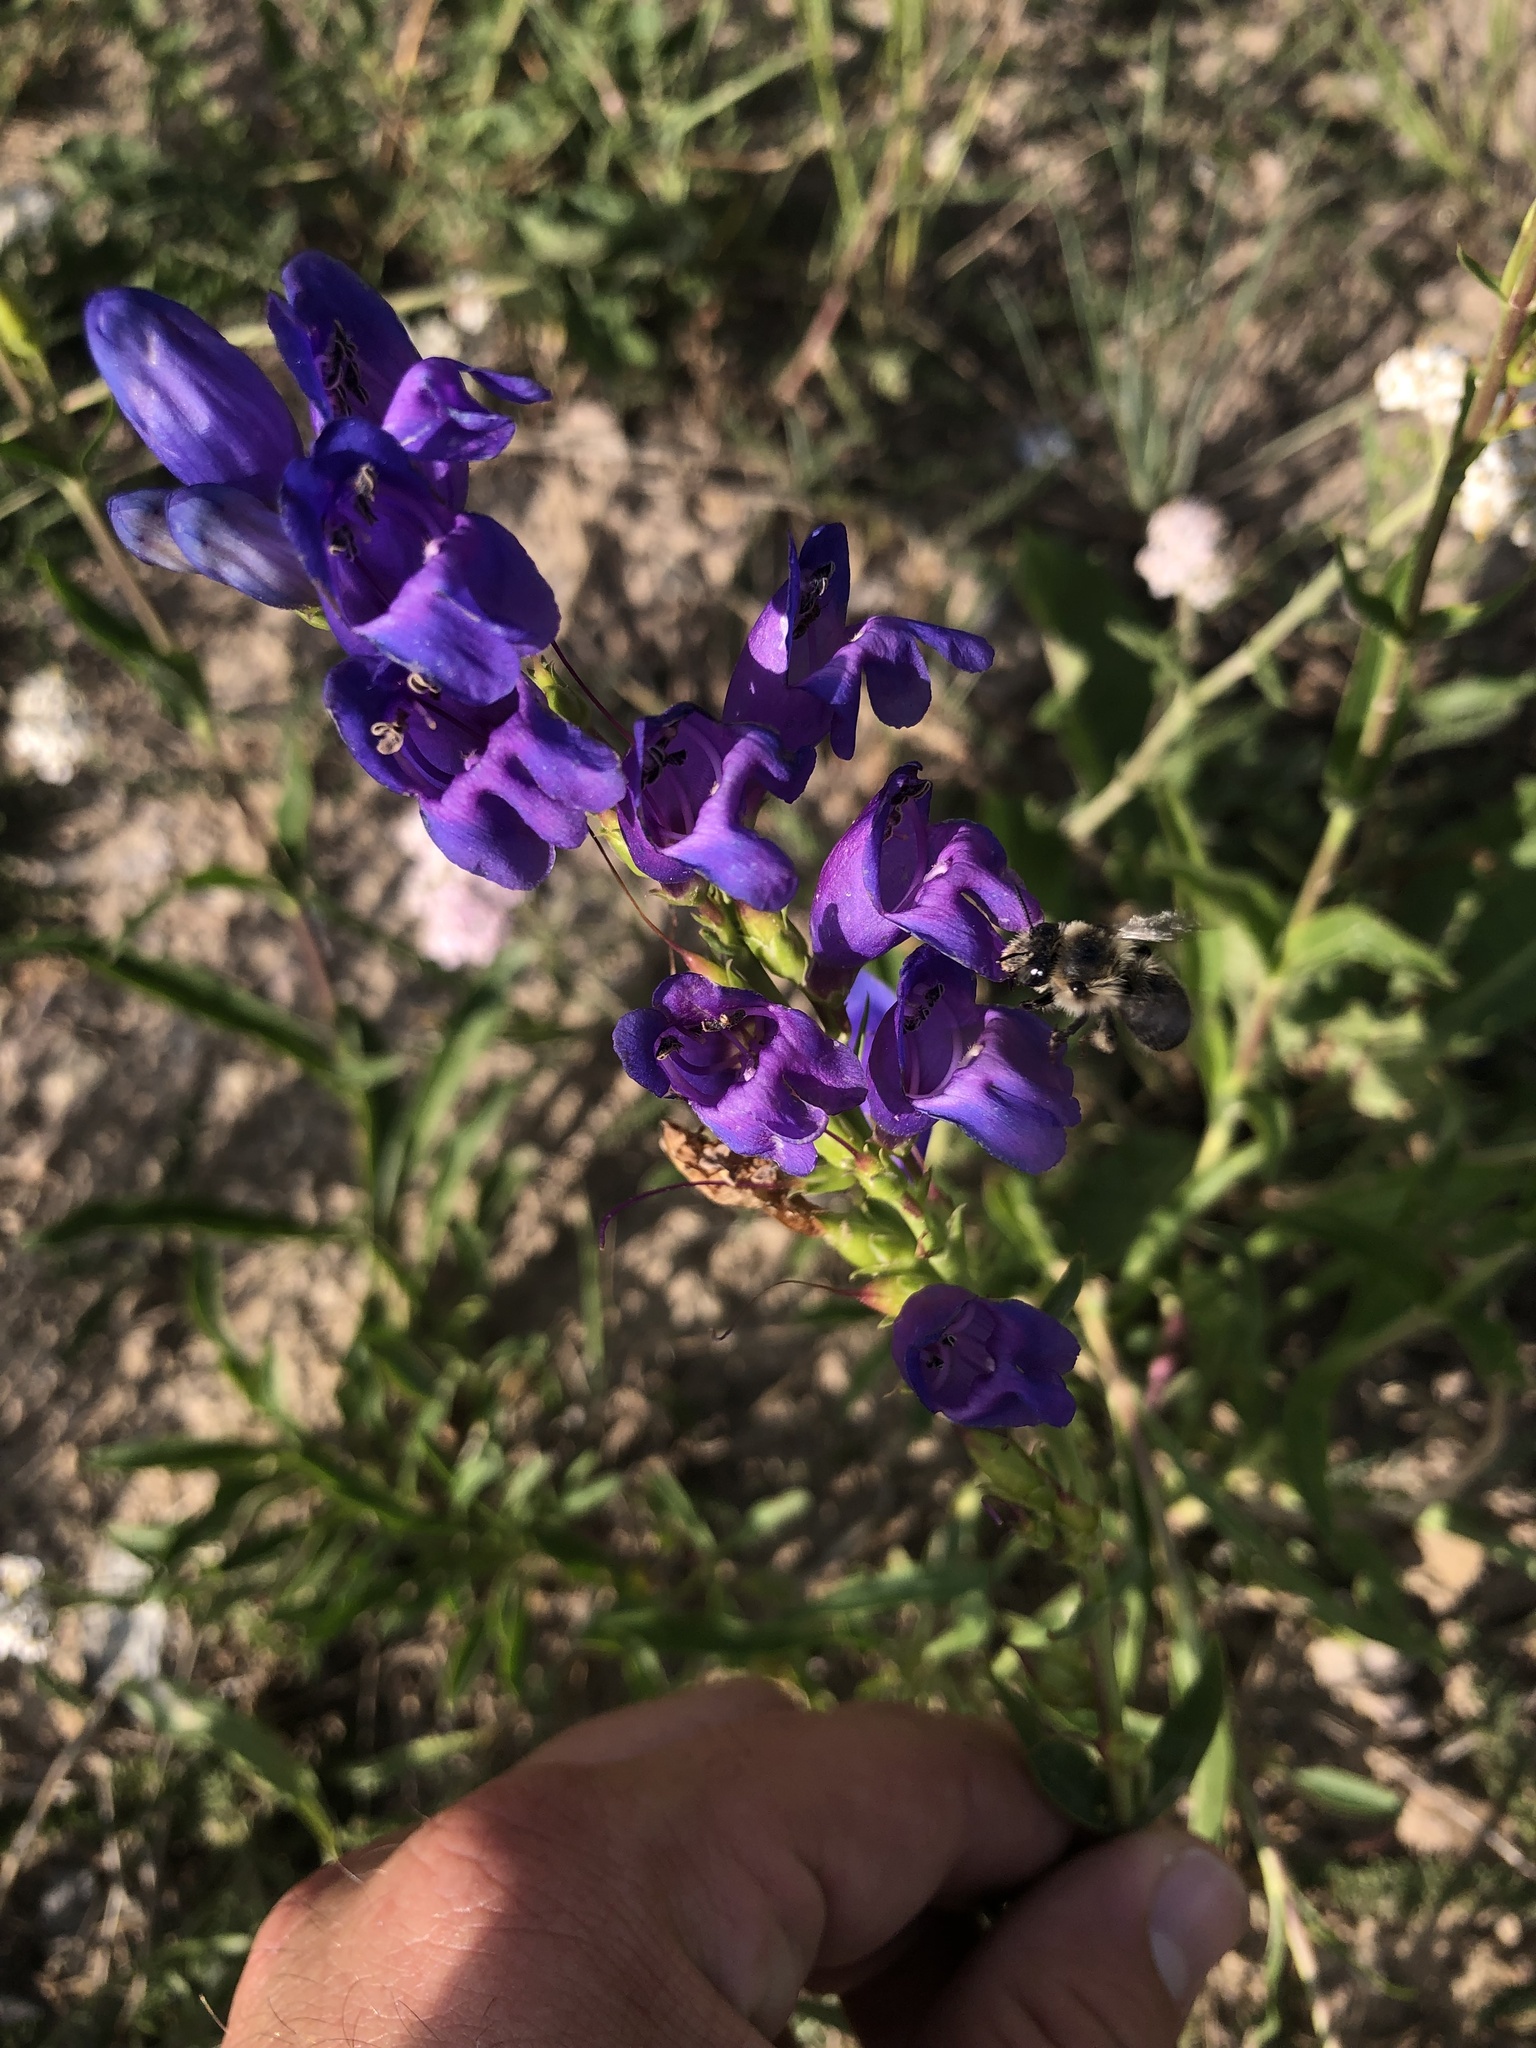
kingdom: Plantae
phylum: Tracheophyta
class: Magnoliopsida
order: Lamiales
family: Plantaginaceae
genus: Penstemon
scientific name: Penstemon strictus
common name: Rocky mountain penstemon
